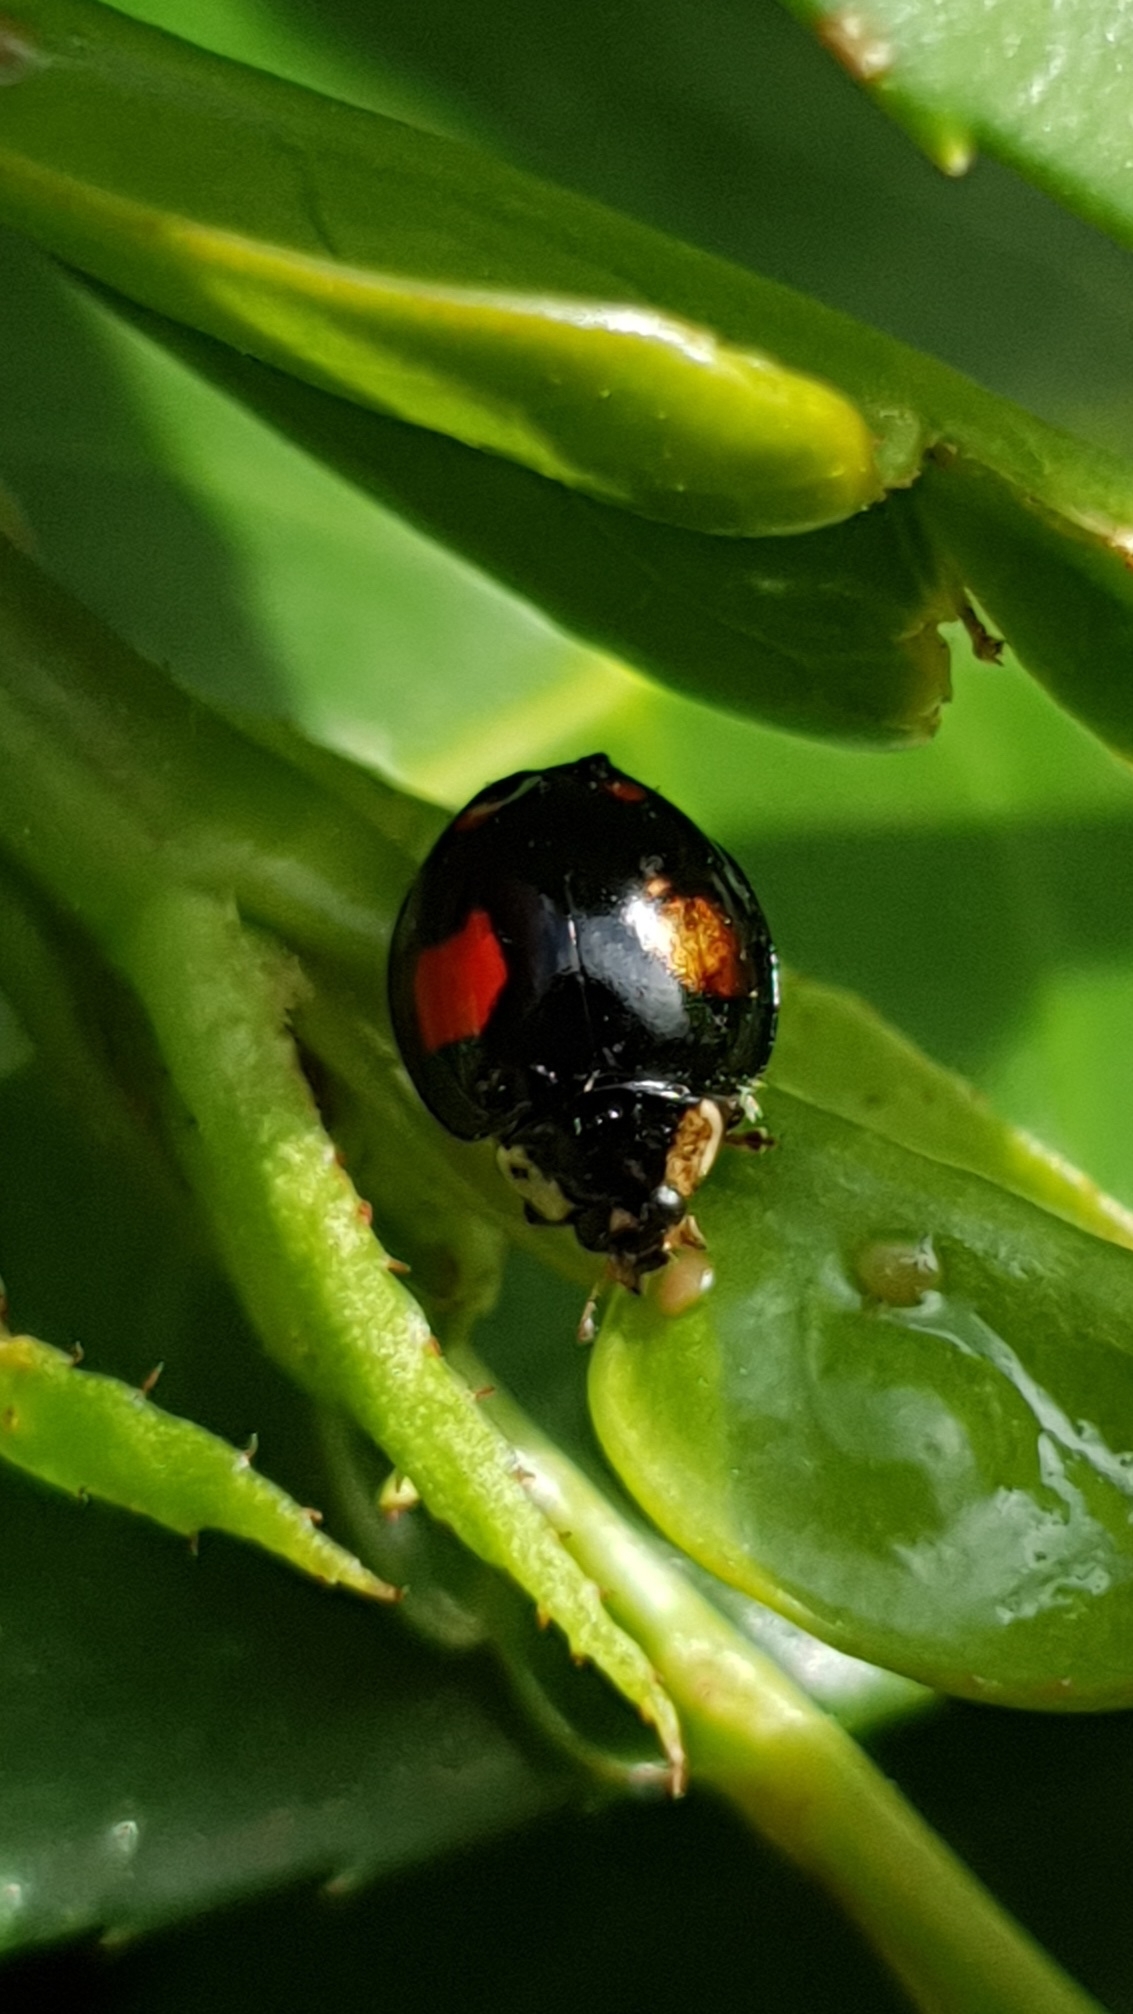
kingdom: Animalia
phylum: Arthropoda
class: Insecta
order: Coleoptera
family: Coccinellidae
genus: Harmonia
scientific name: Harmonia axyridis
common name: Harlequin ladybird
